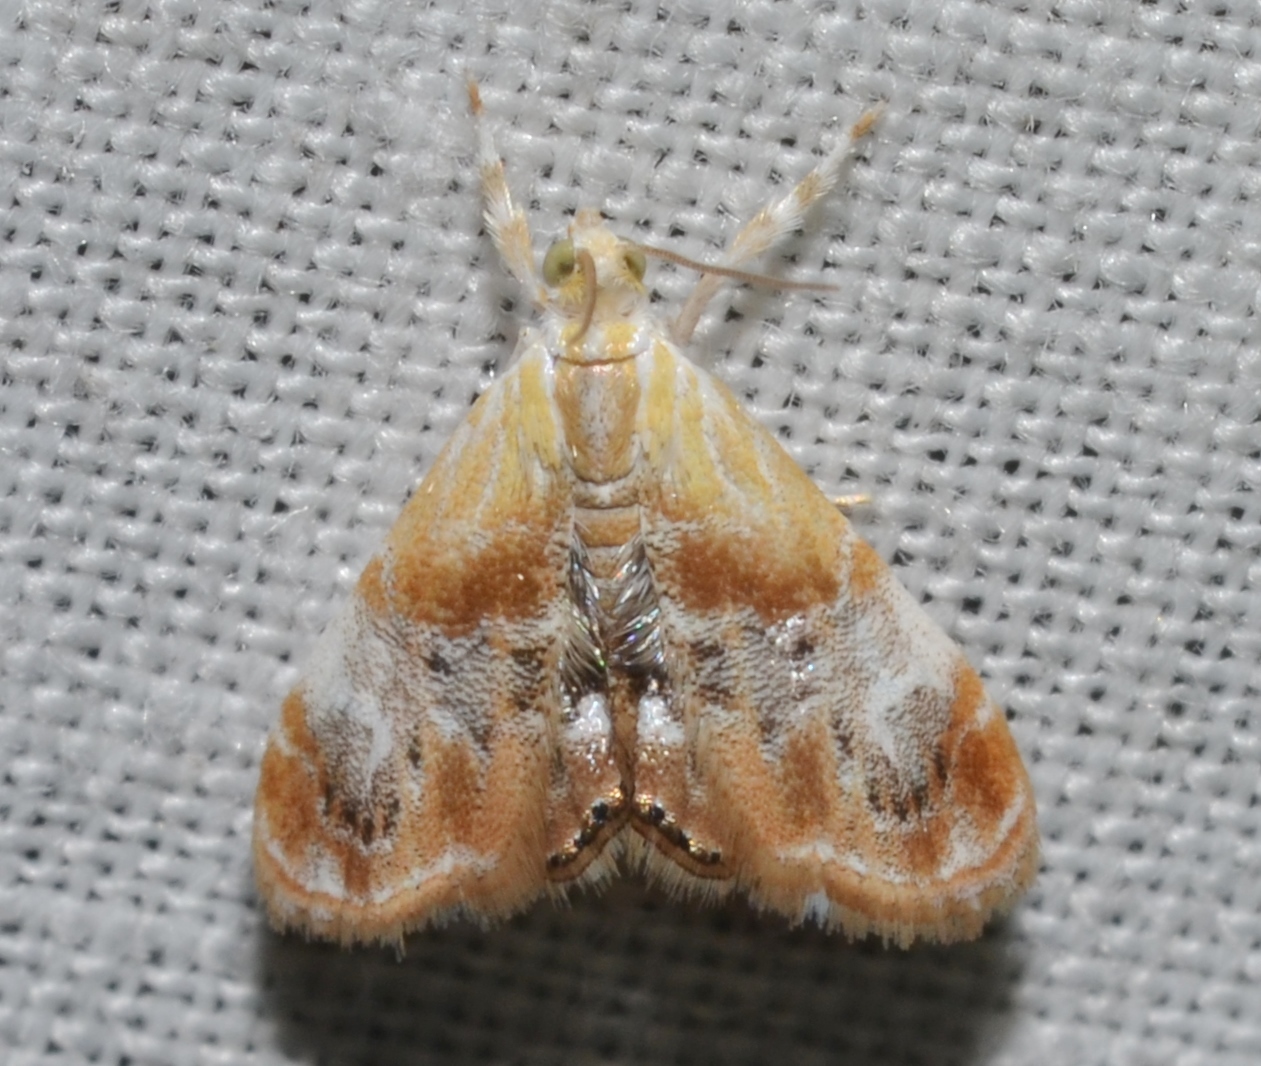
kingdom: Animalia
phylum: Arthropoda
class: Insecta
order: Lepidoptera
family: Crambidae
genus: Dicymolomia
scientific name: Dicymolomia julianalis
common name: Julia's dicymolomia moth
